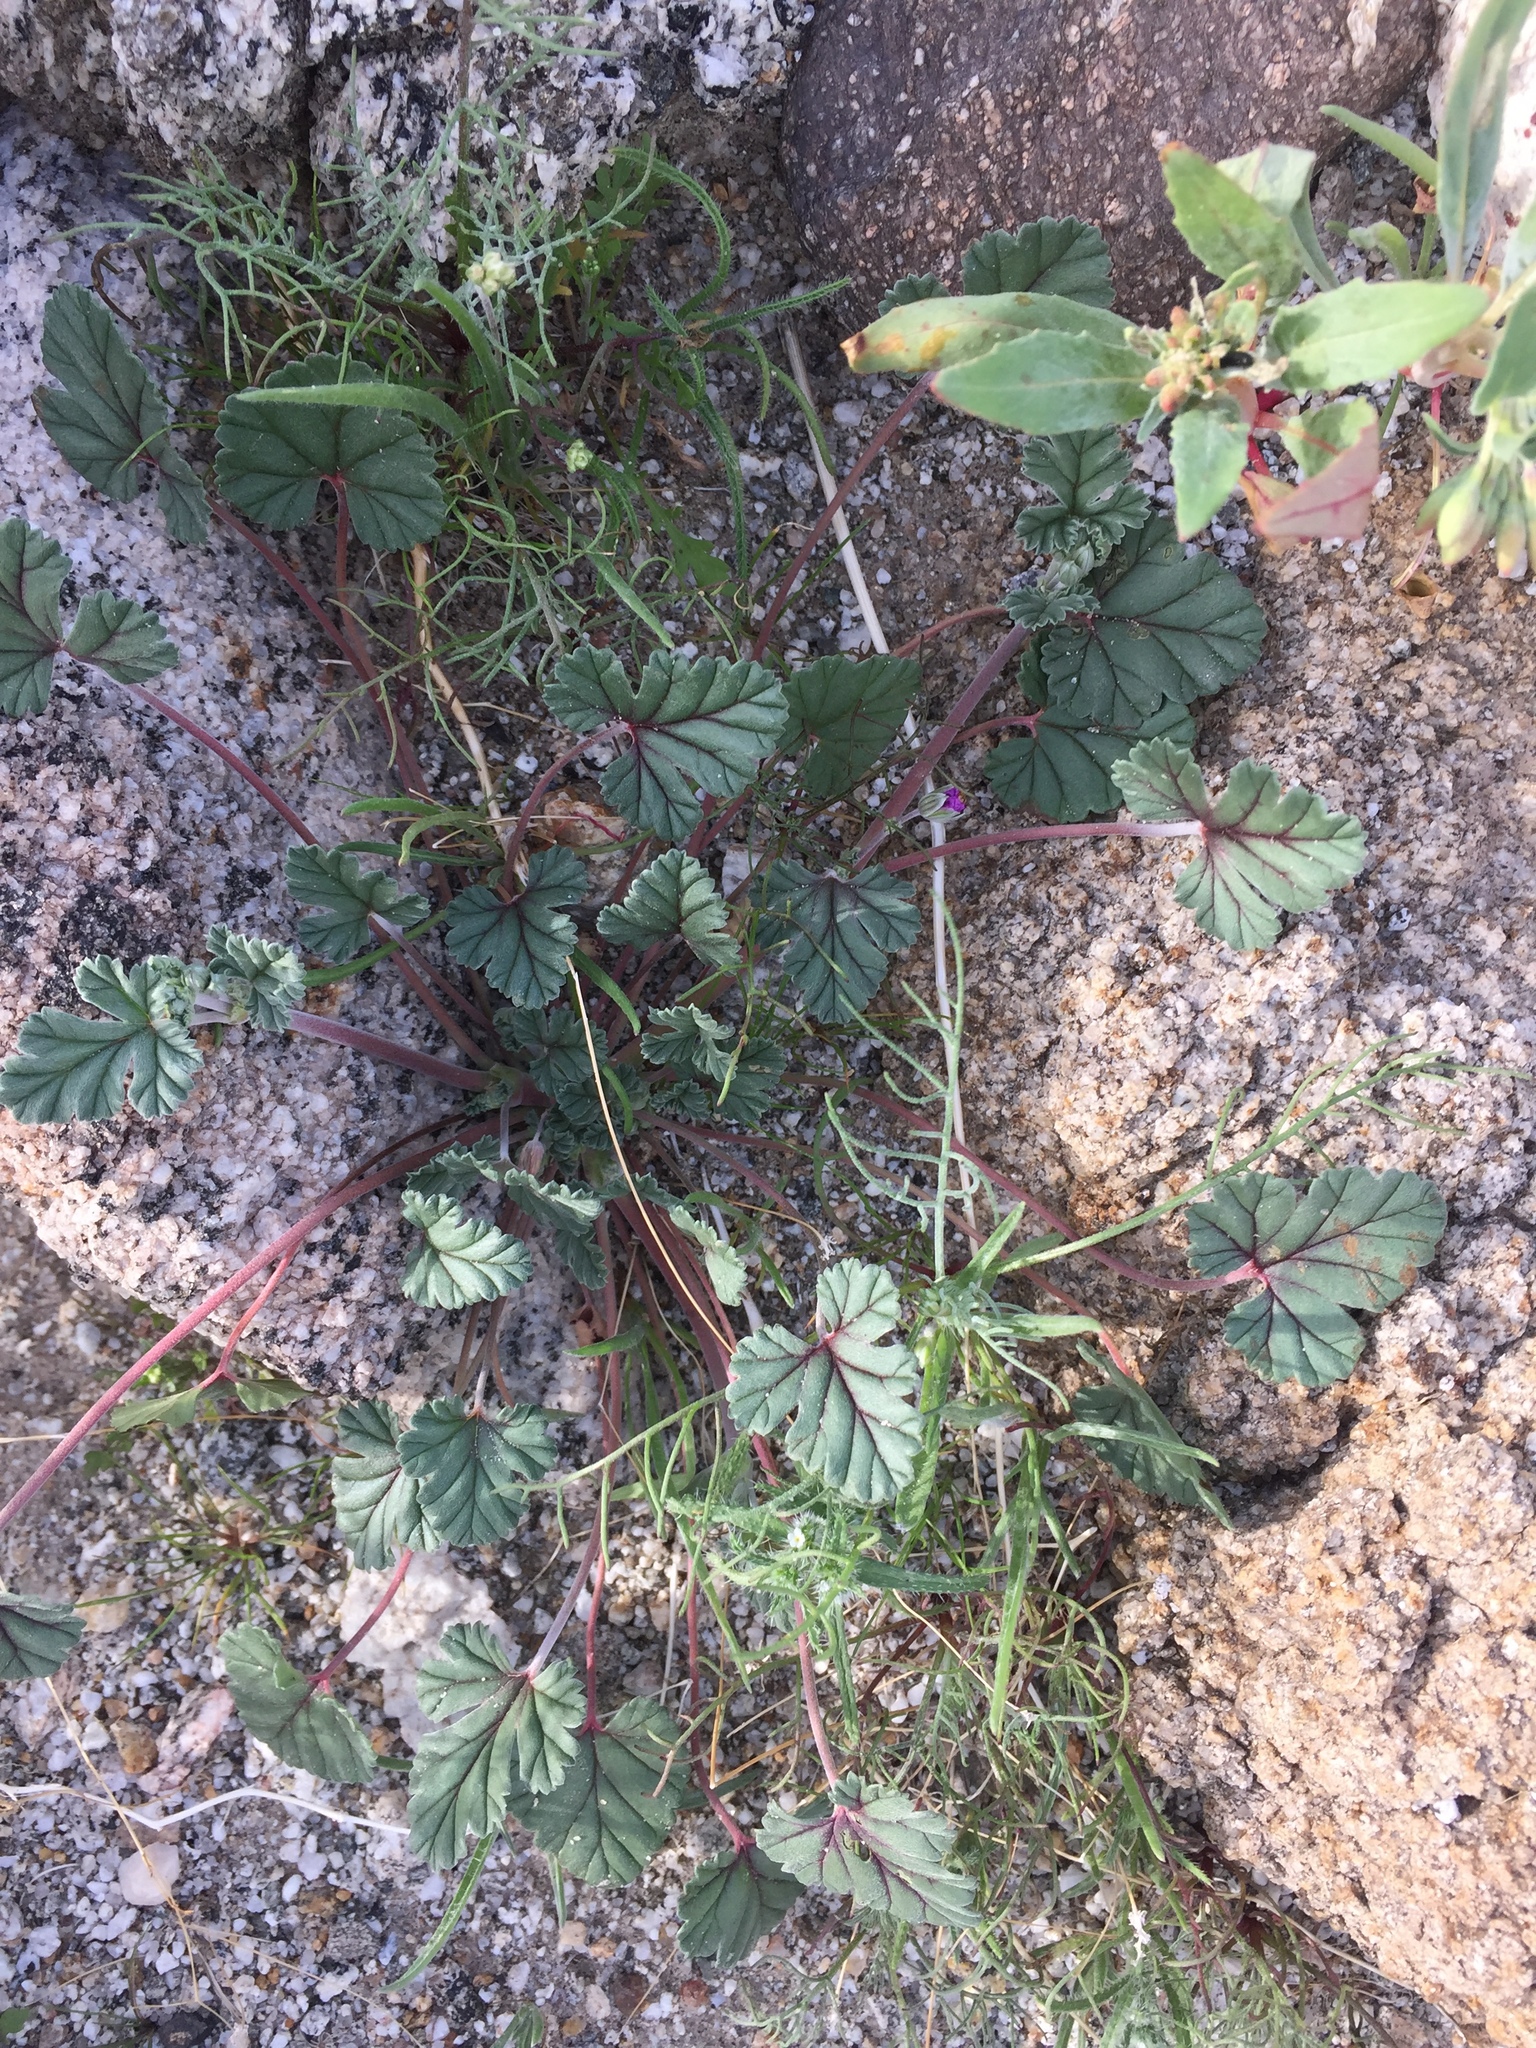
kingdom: Plantae
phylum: Tracheophyta
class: Magnoliopsida
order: Geraniales
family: Geraniaceae
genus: Erodium
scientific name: Erodium texanum
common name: Texas stork's-bill
